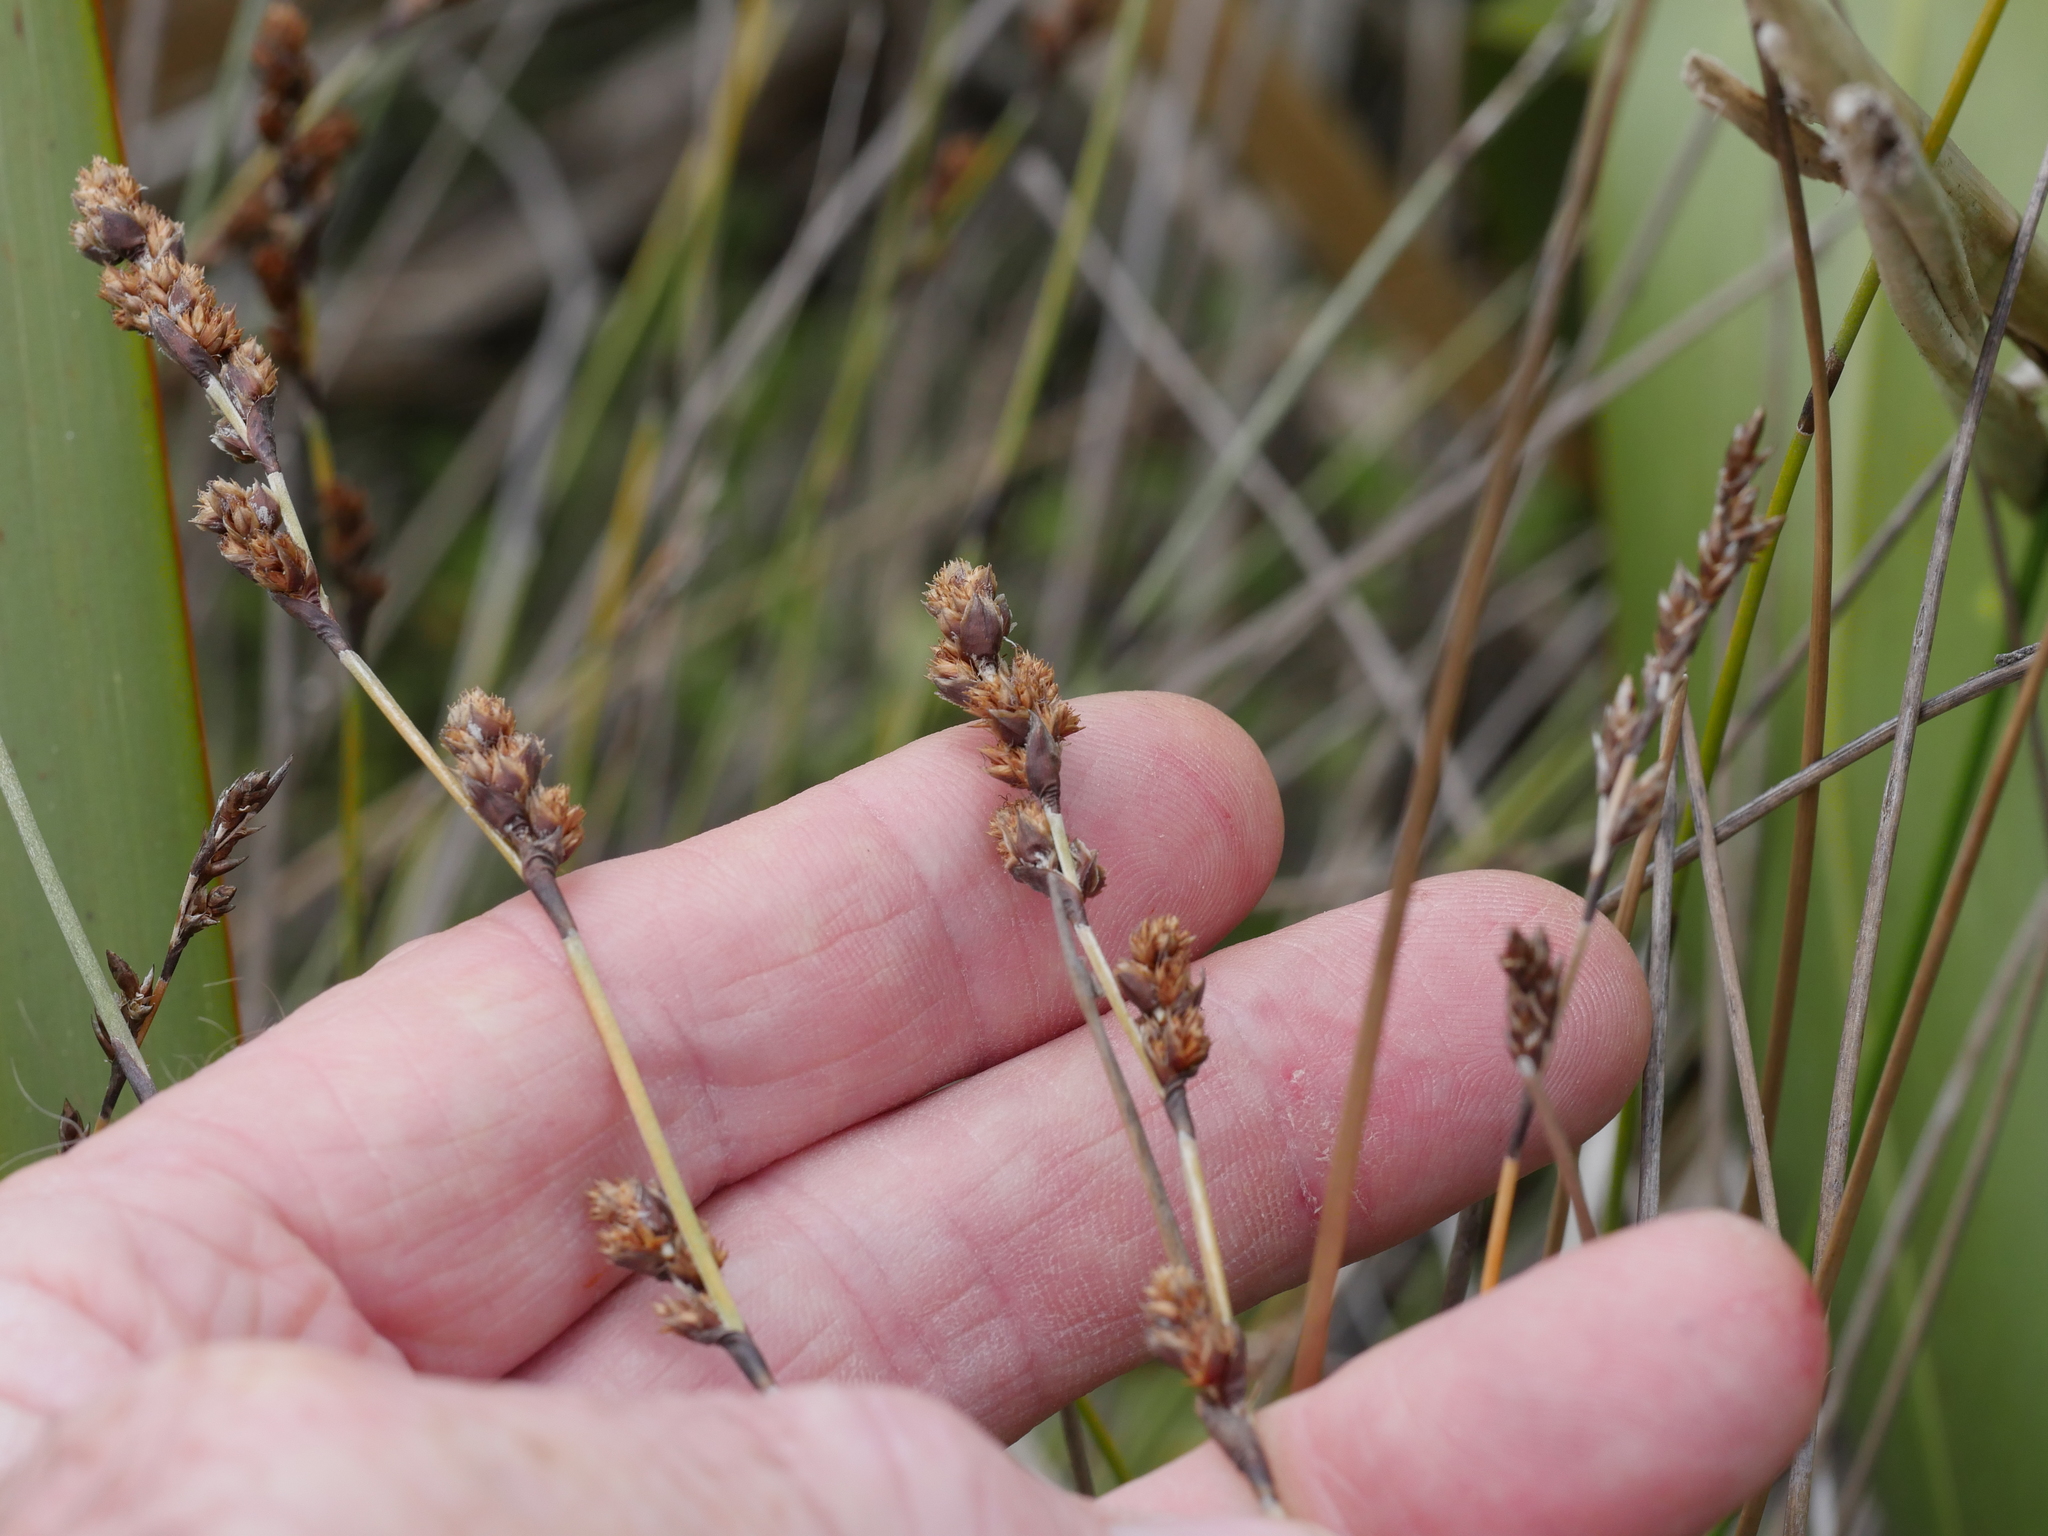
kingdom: Plantae
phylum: Tracheophyta
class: Liliopsida
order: Poales
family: Restionaceae
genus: Apodasmia
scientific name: Apodasmia similis
